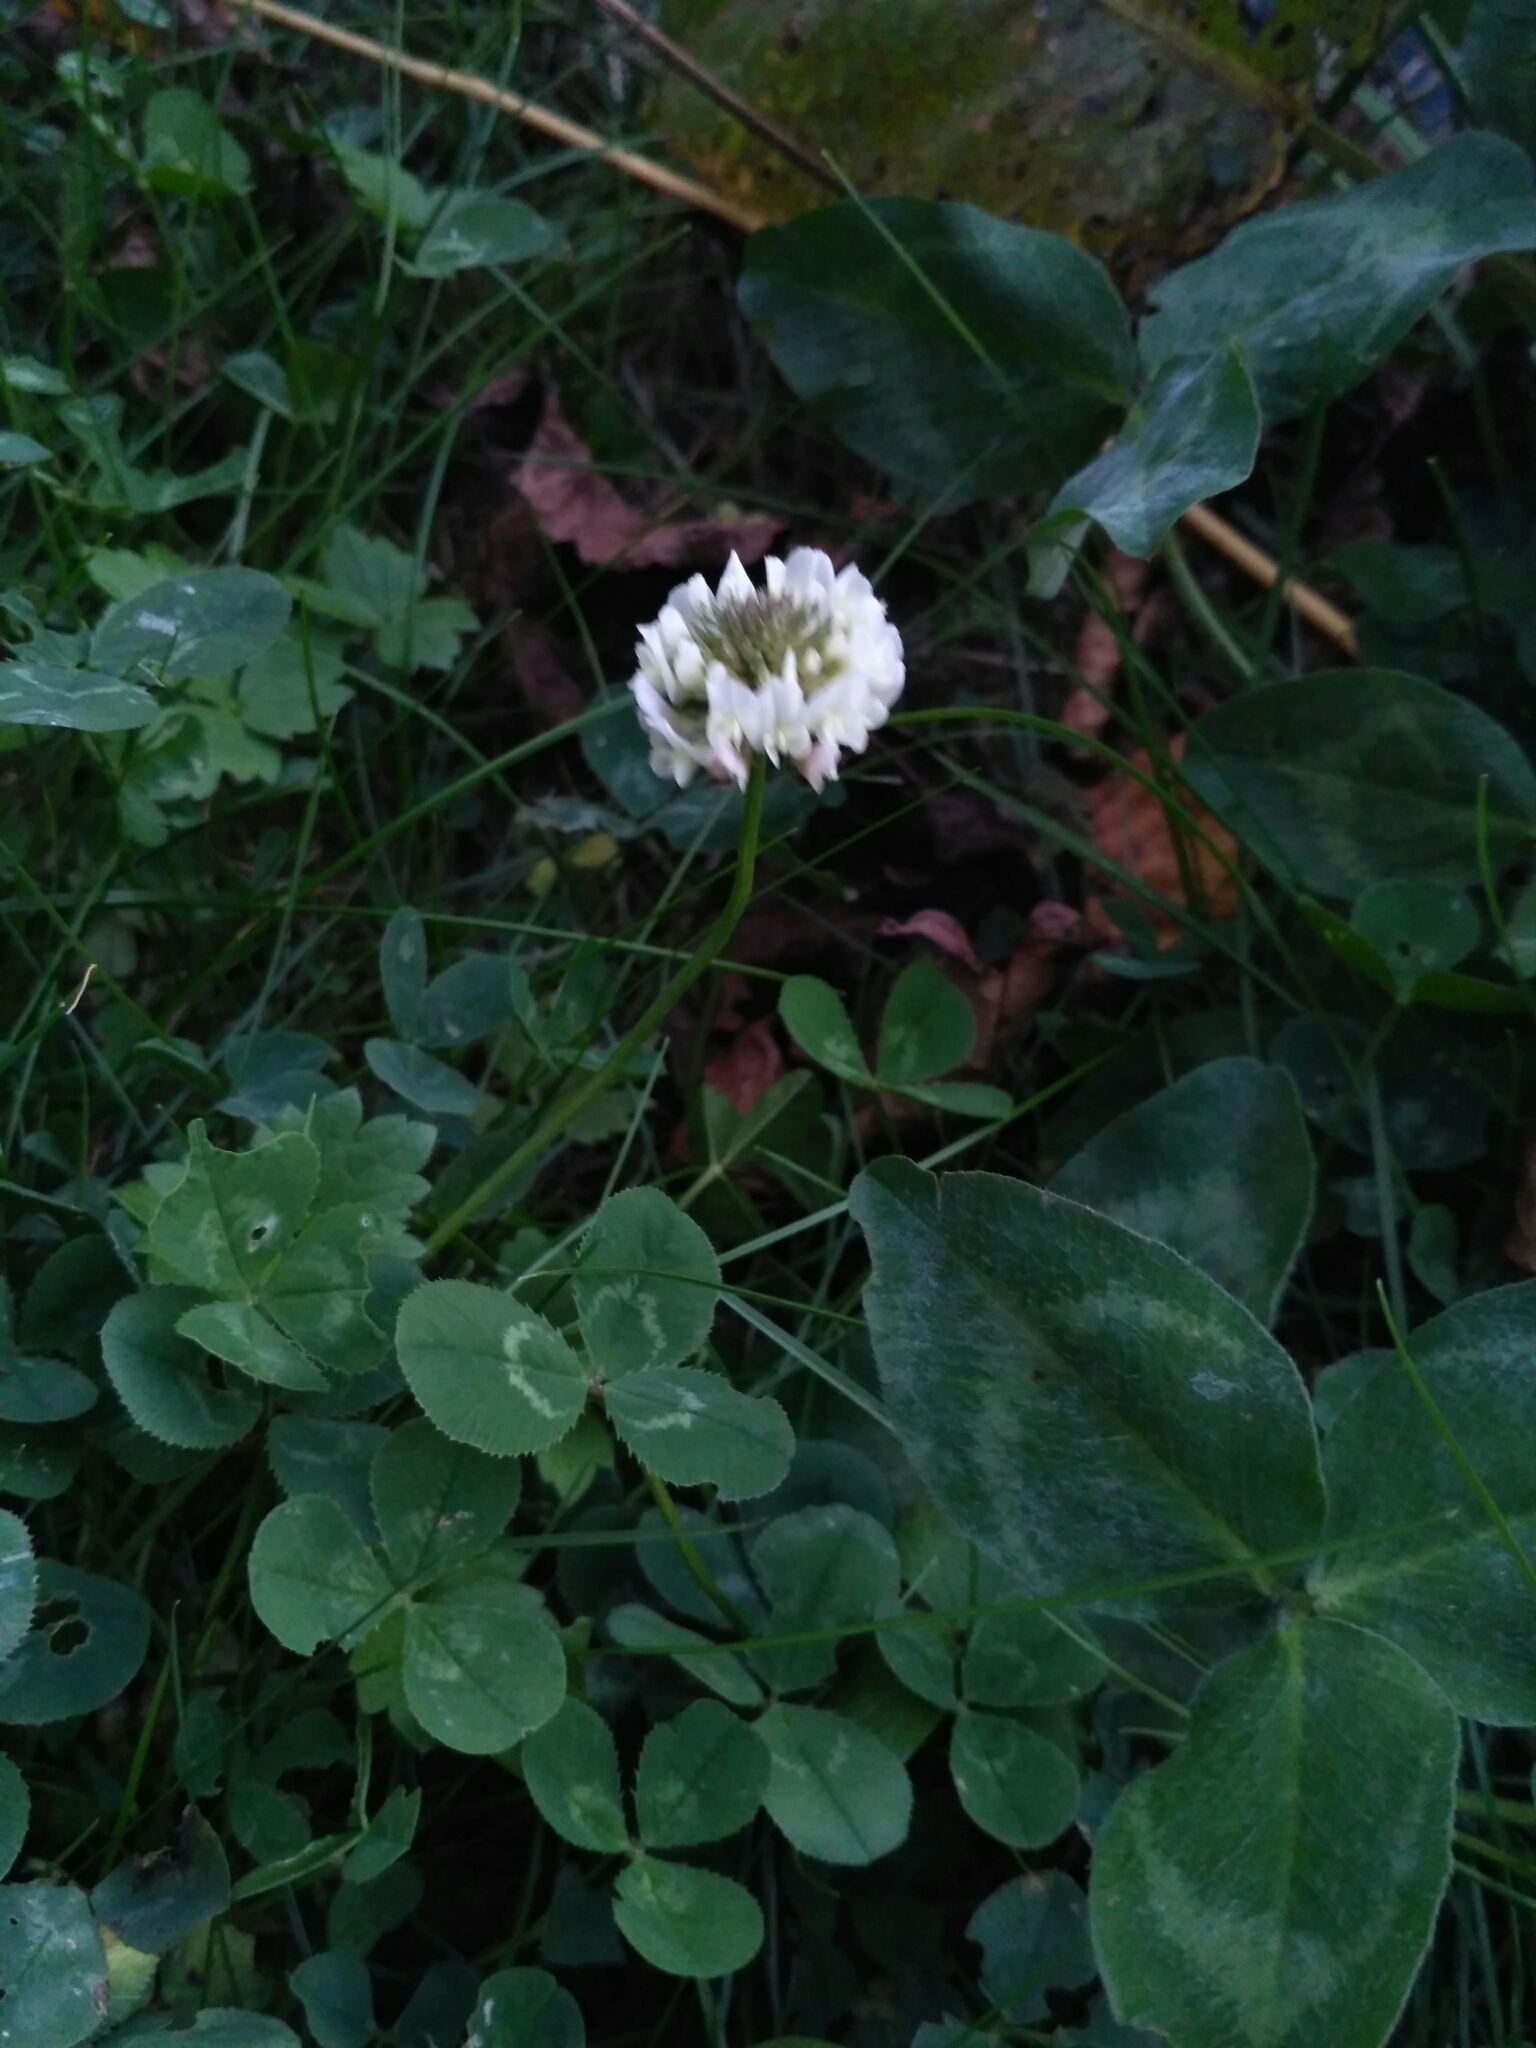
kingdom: Plantae
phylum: Tracheophyta
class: Magnoliopsida
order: Fabales
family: Fabaceae
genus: Trifolium
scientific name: Trifolium repens
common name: White clover
